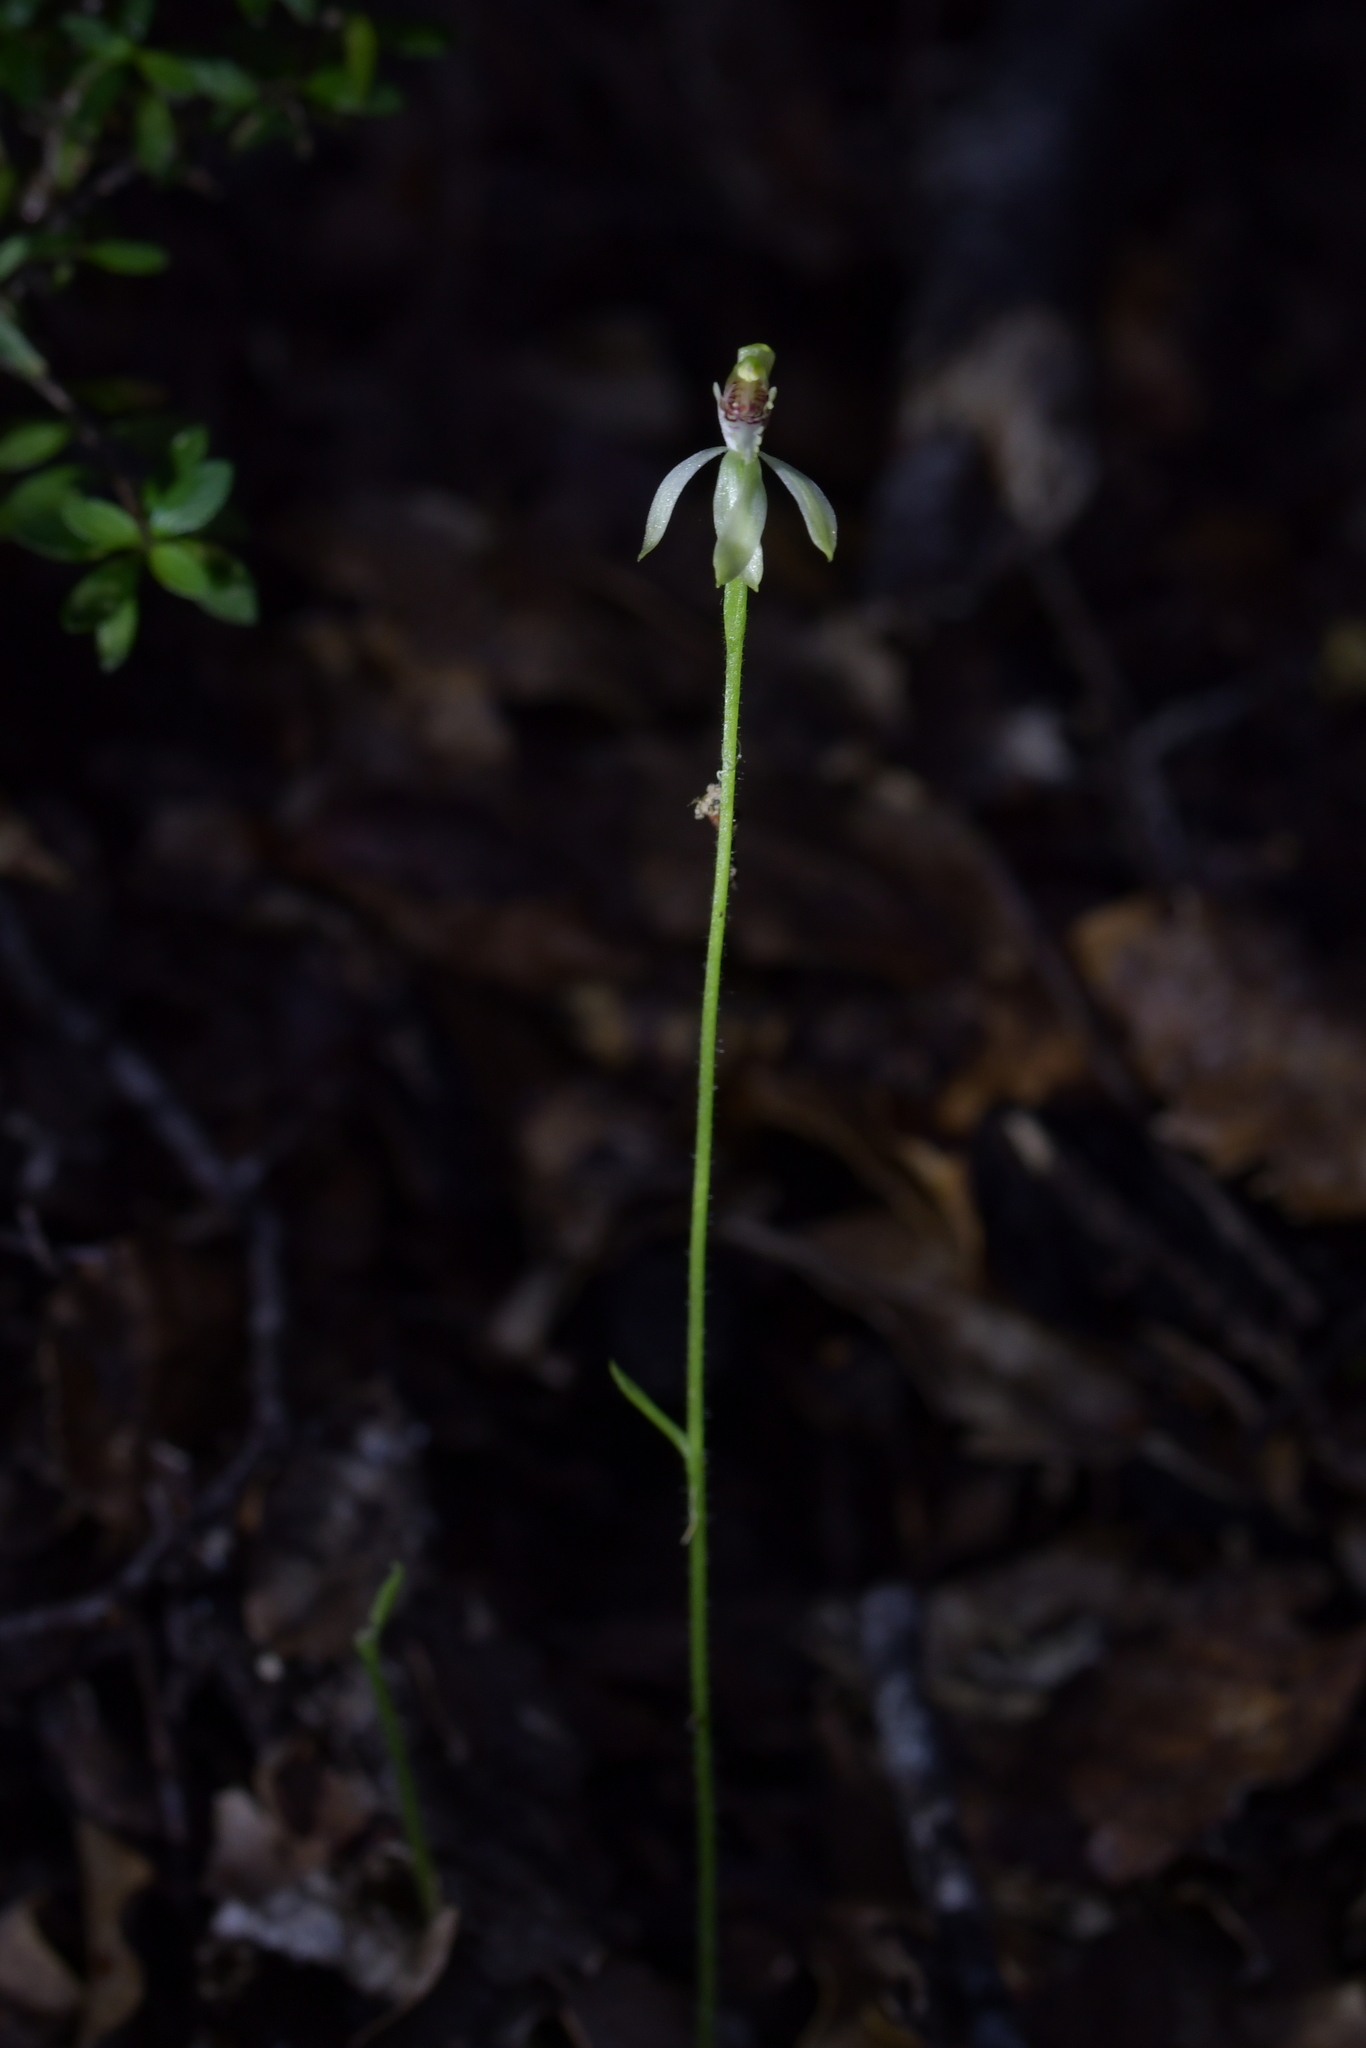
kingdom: Plantae
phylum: Tracheophyta
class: Liliopsida
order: Asparagales
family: Orchidaceae
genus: Caladenia
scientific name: Caladenia chlorostyla
